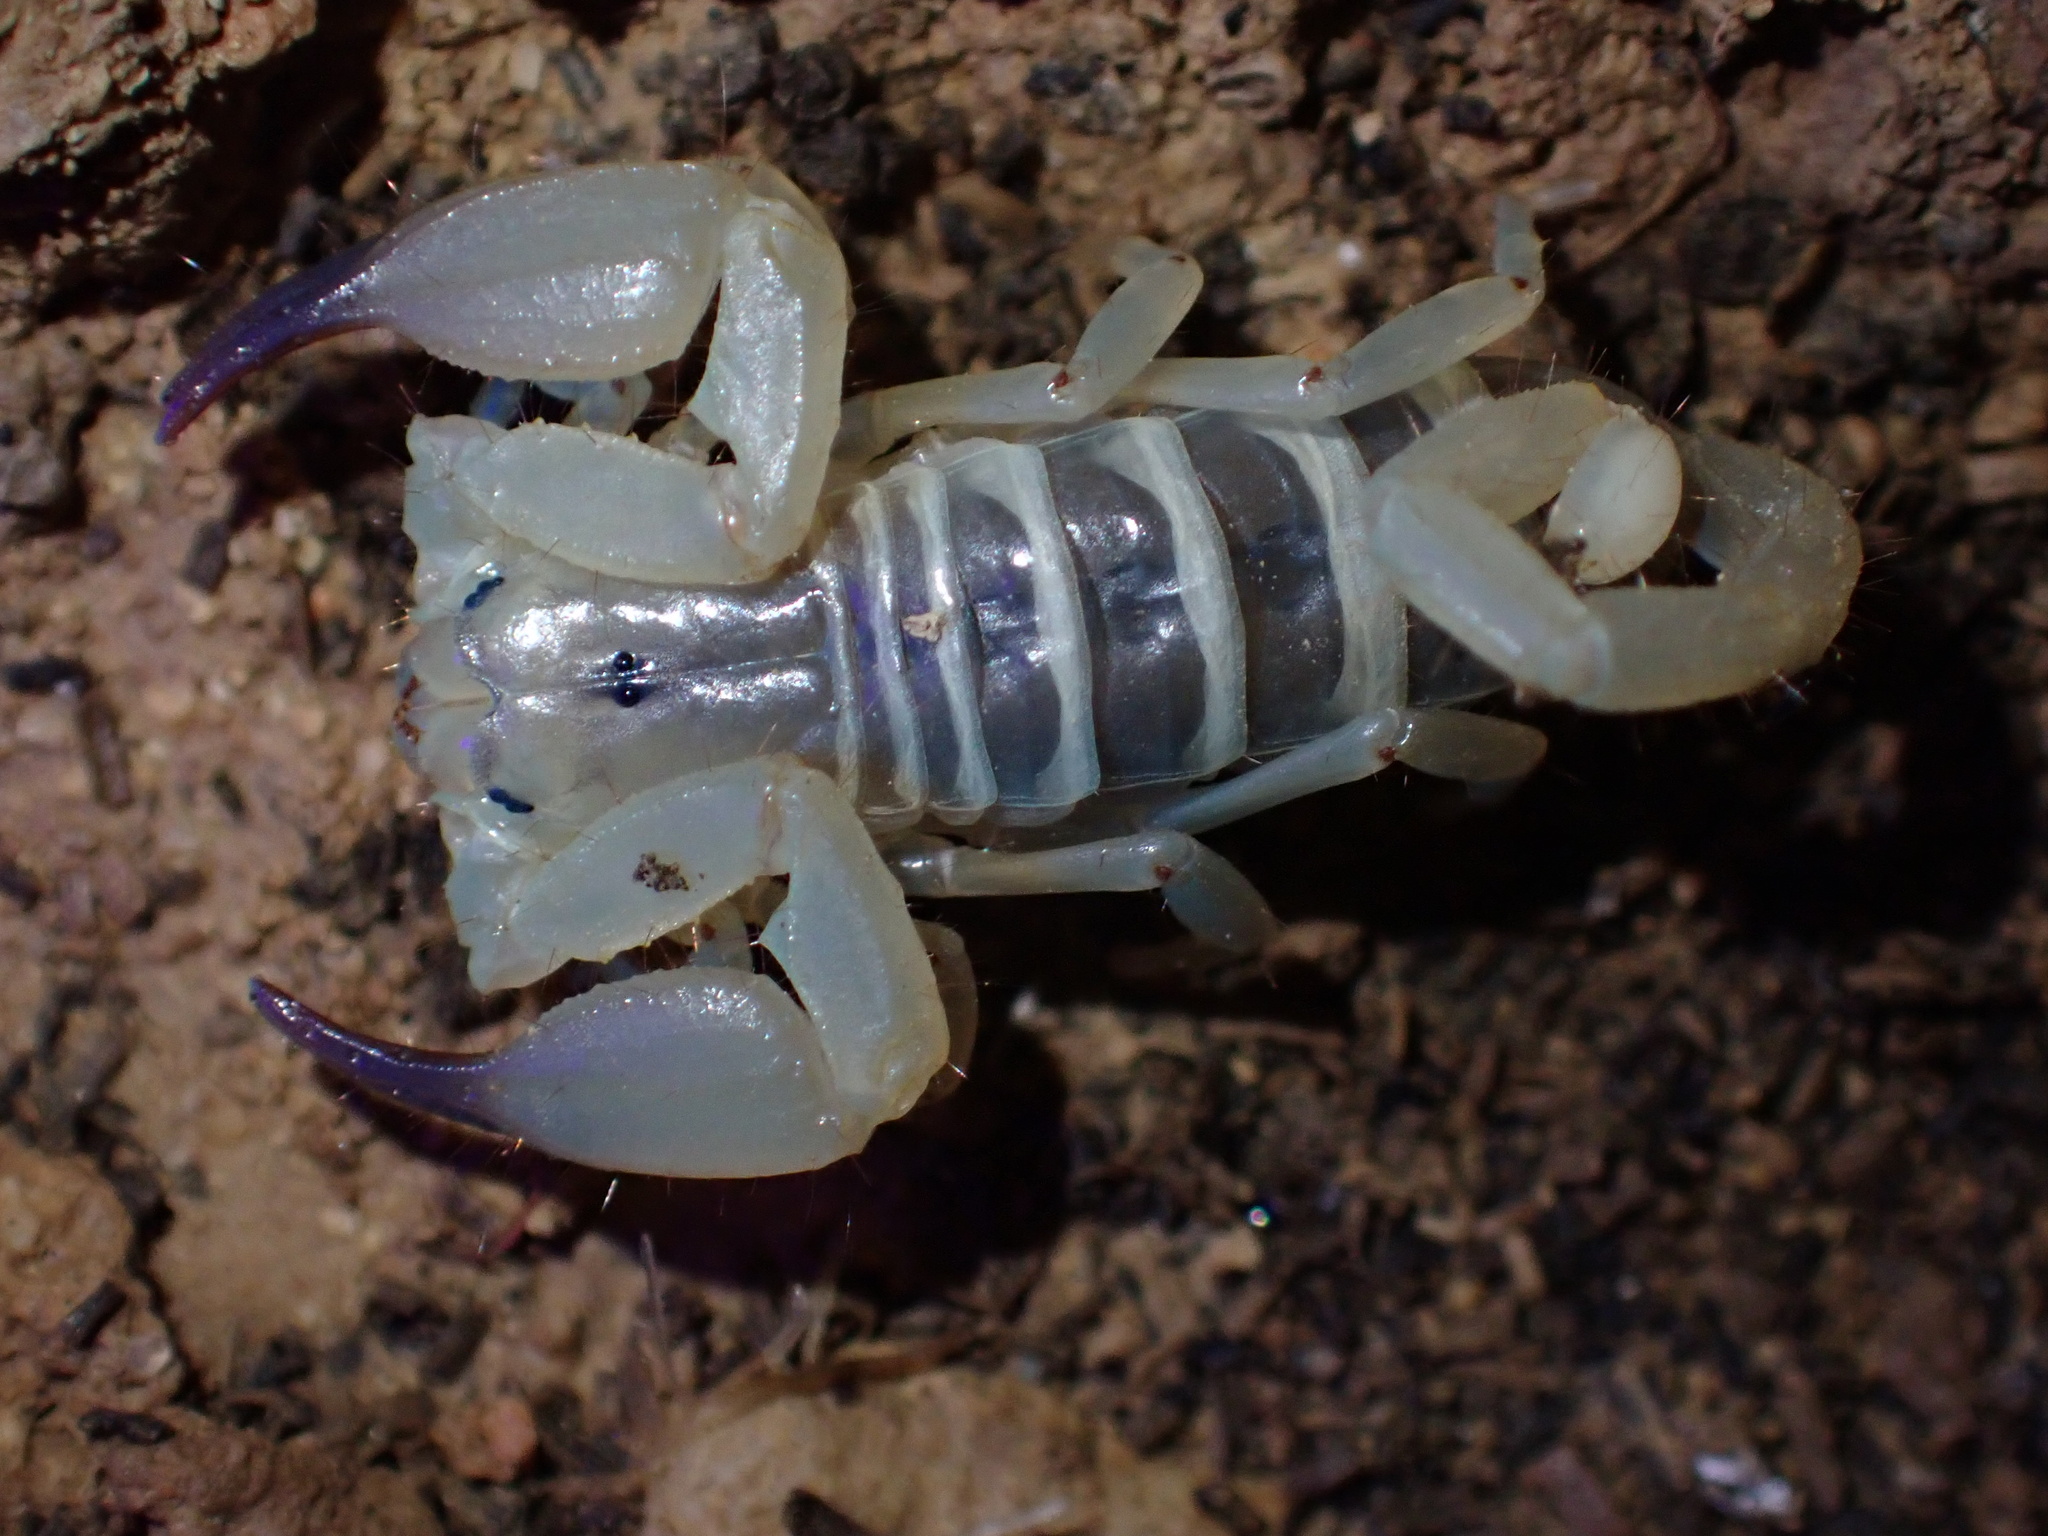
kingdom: Animalia
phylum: Arthropoda
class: Arachnida
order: Scorpiones
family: Hemiscorpiidae
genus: Hemiscorpius
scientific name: Hemiscorpius lepturus
